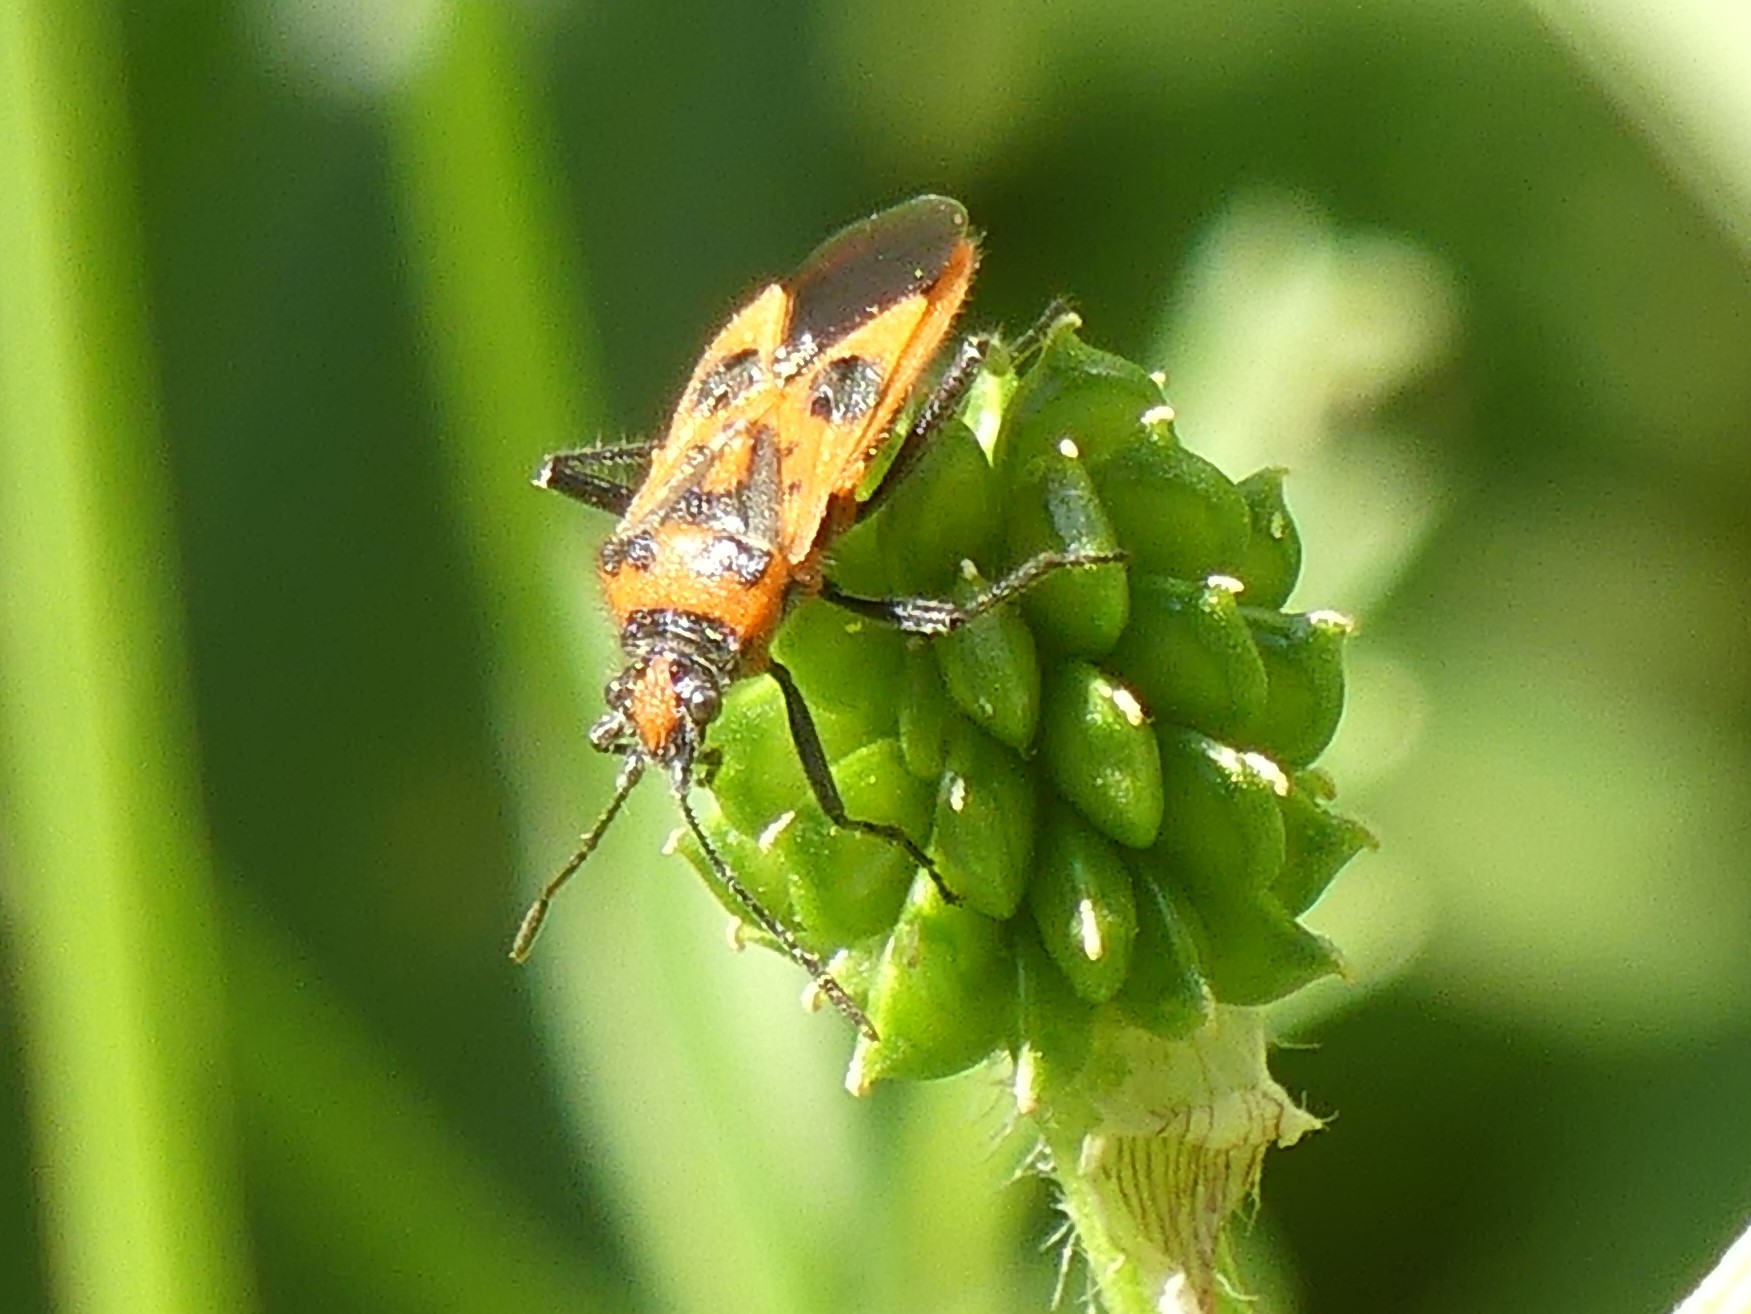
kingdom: Animalia
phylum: Arthropoda
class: Insecta
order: Hemiptera
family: Rhopalidae
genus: Corizus
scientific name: Corizus hyoscyami
